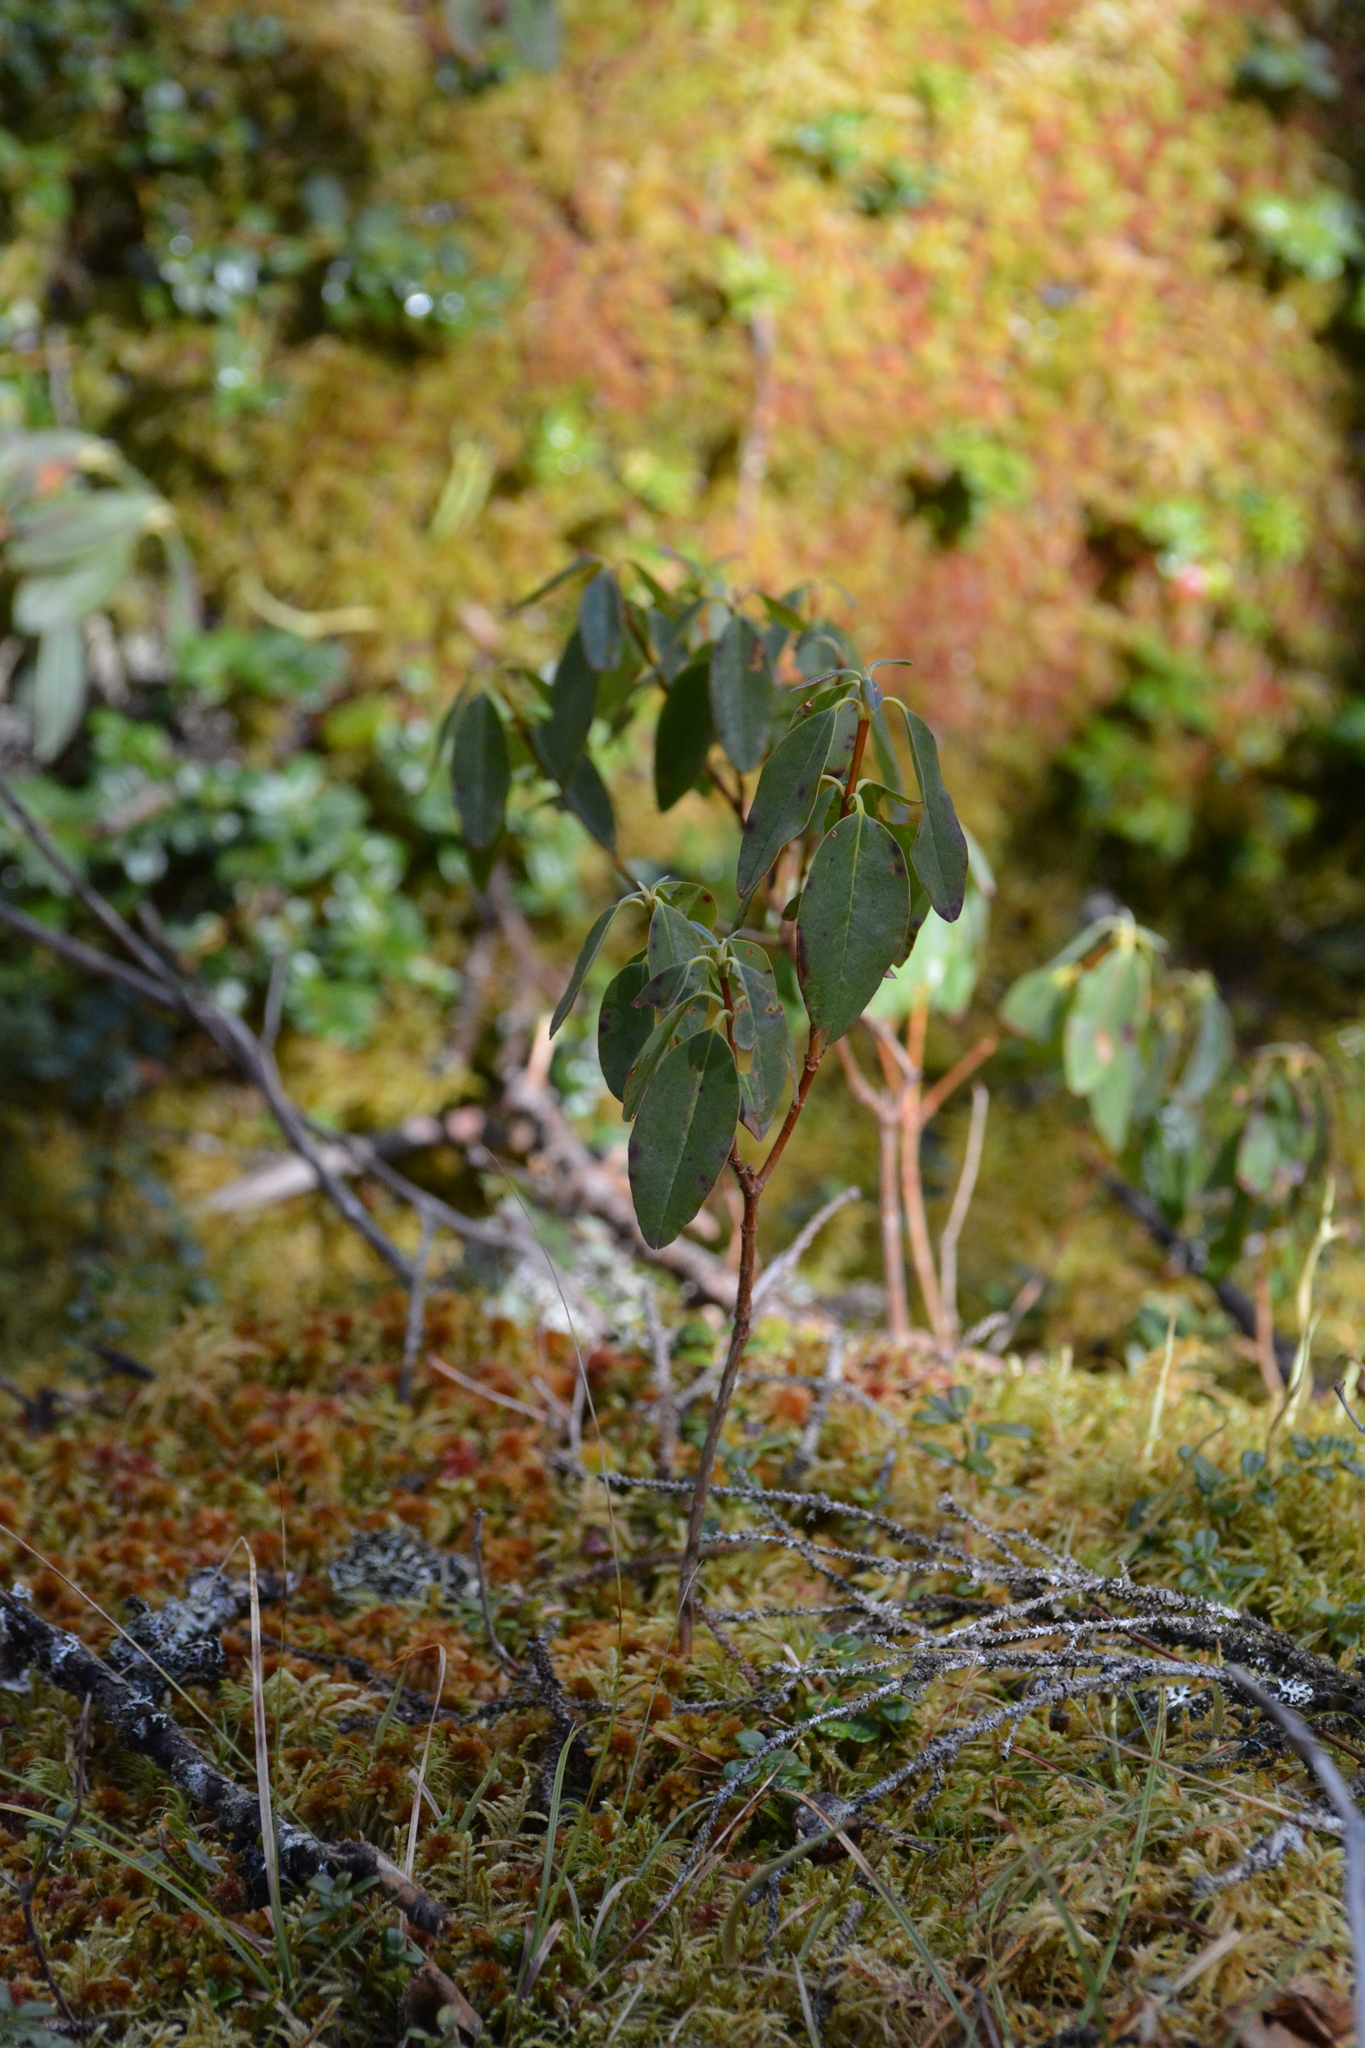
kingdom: Plantae
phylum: Tracheophyta
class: Magnoliopsida
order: Ericales
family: Ericaceae
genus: Kalmia
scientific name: Kalmia angustifolia
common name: Sheep-laurel
